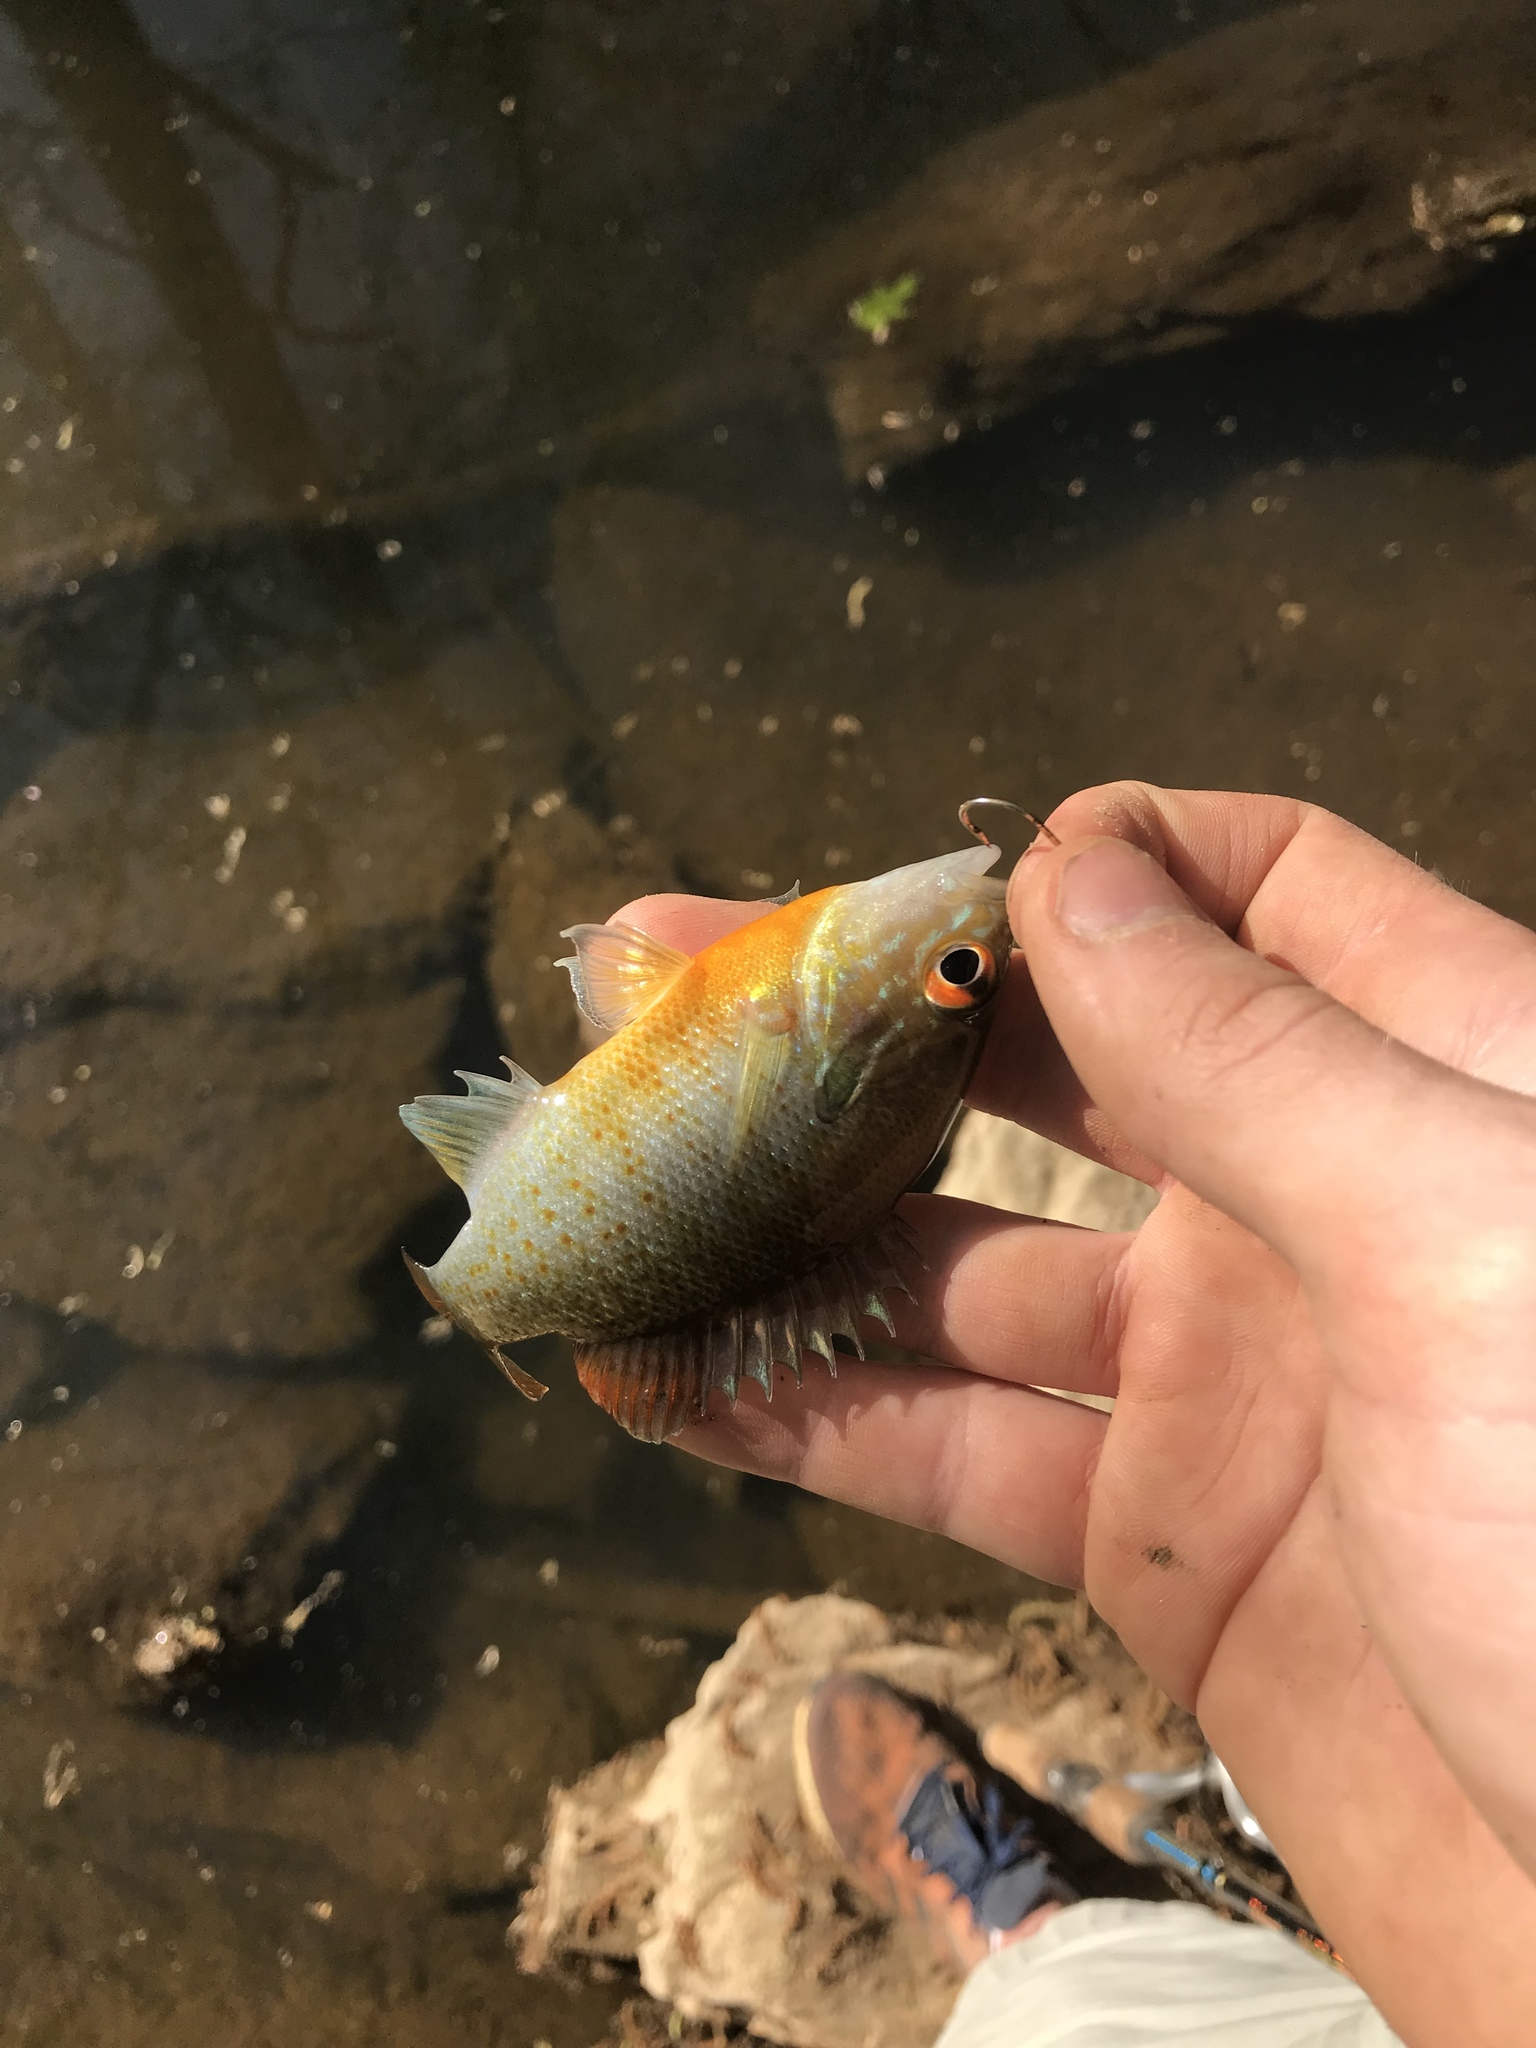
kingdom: Animalia
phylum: Chordata
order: Perciformes
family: Centrarchidae
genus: Lepomis
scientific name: Lepomis auritus
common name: Redbreast sunfish
